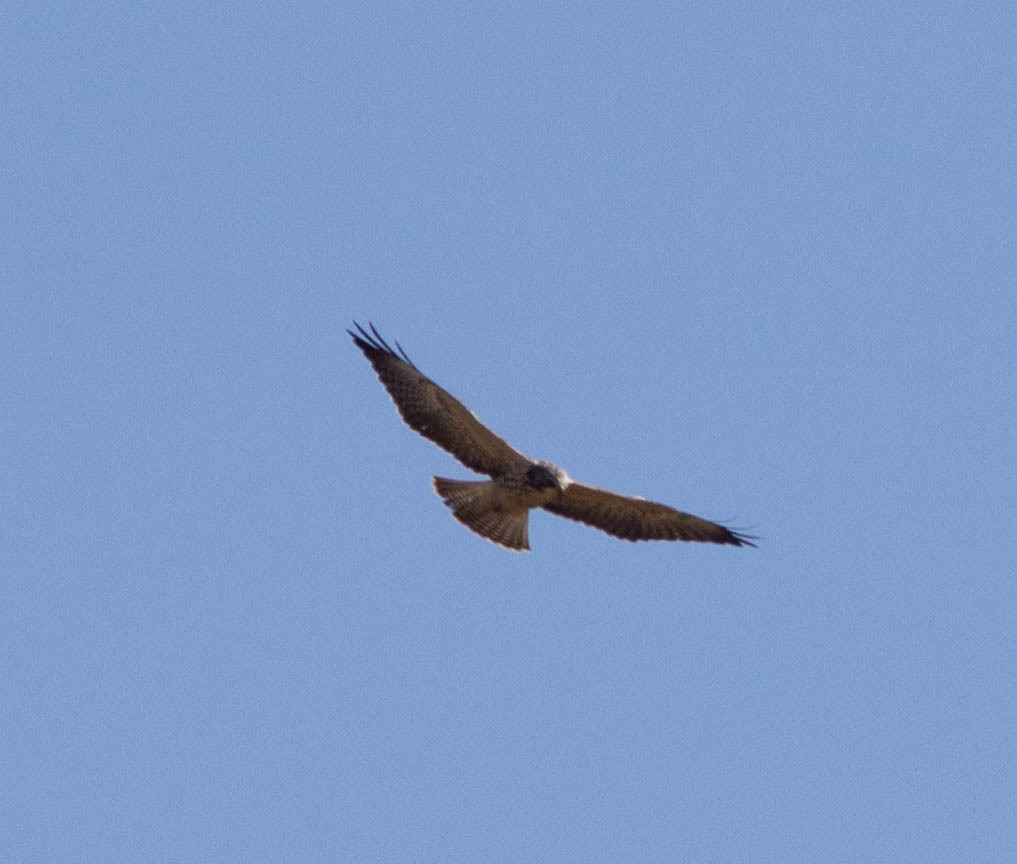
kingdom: Animalia
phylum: Chordata
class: Aves
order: Accipitriformes
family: Accipitridae
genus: Buteo
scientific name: Buteo swainsoni
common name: Swainson's hawk
